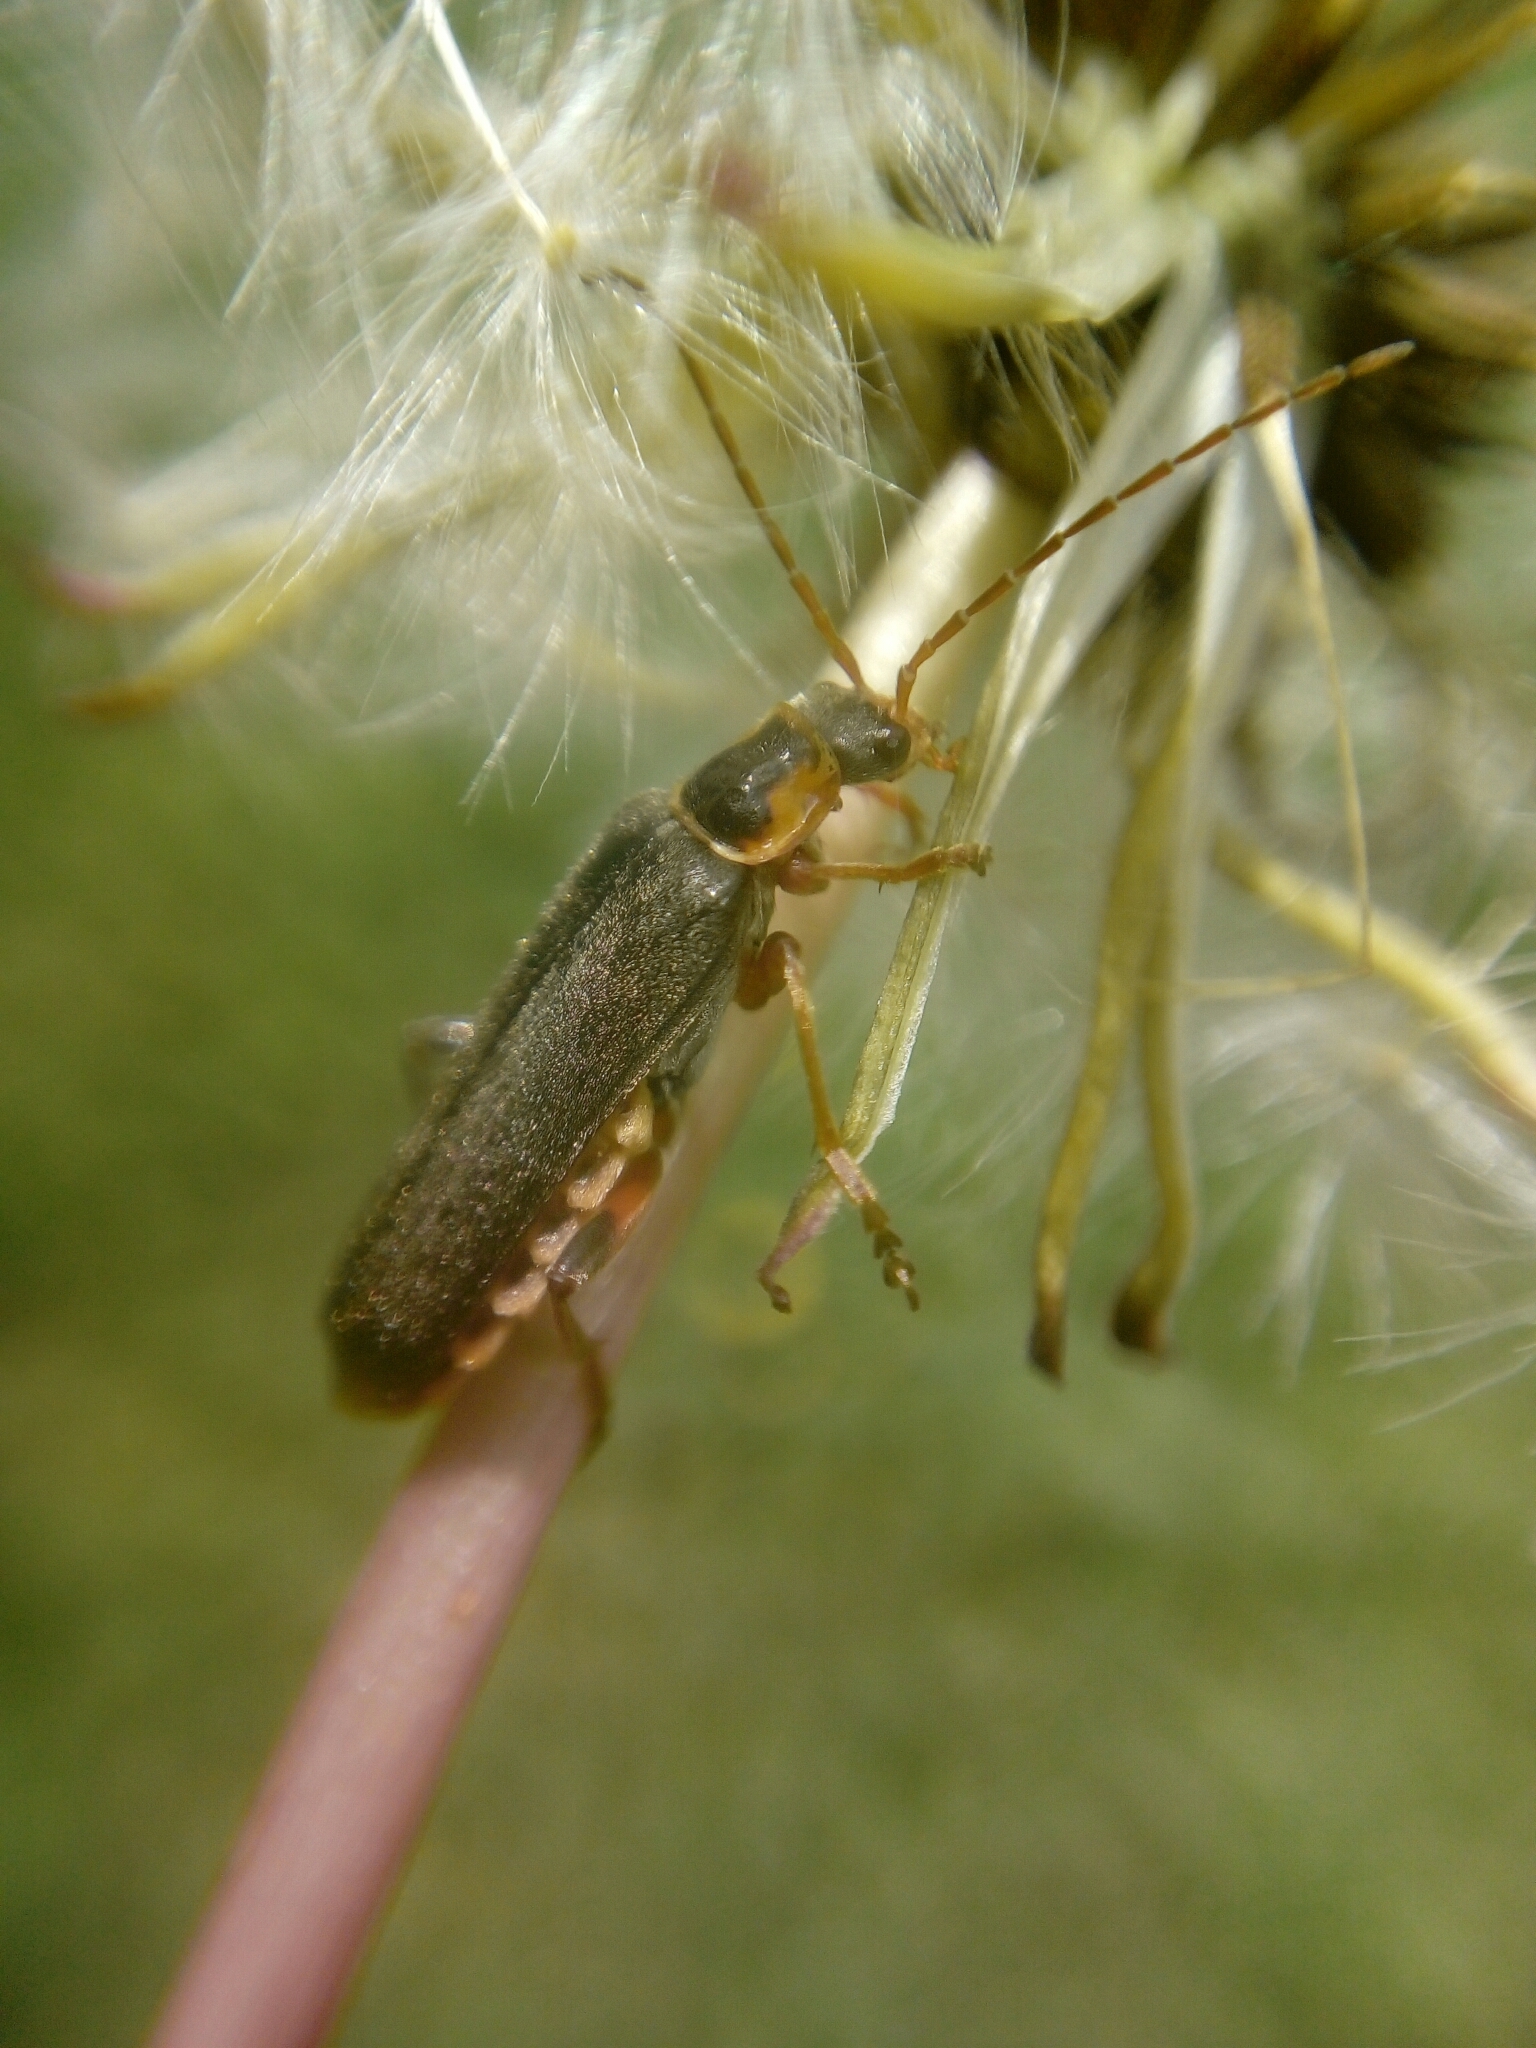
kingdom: Animalia
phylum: Arthropoda
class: Insecta
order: Coleoptera
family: Cantharidae
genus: Cantharis
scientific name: Cantharis nigricans
